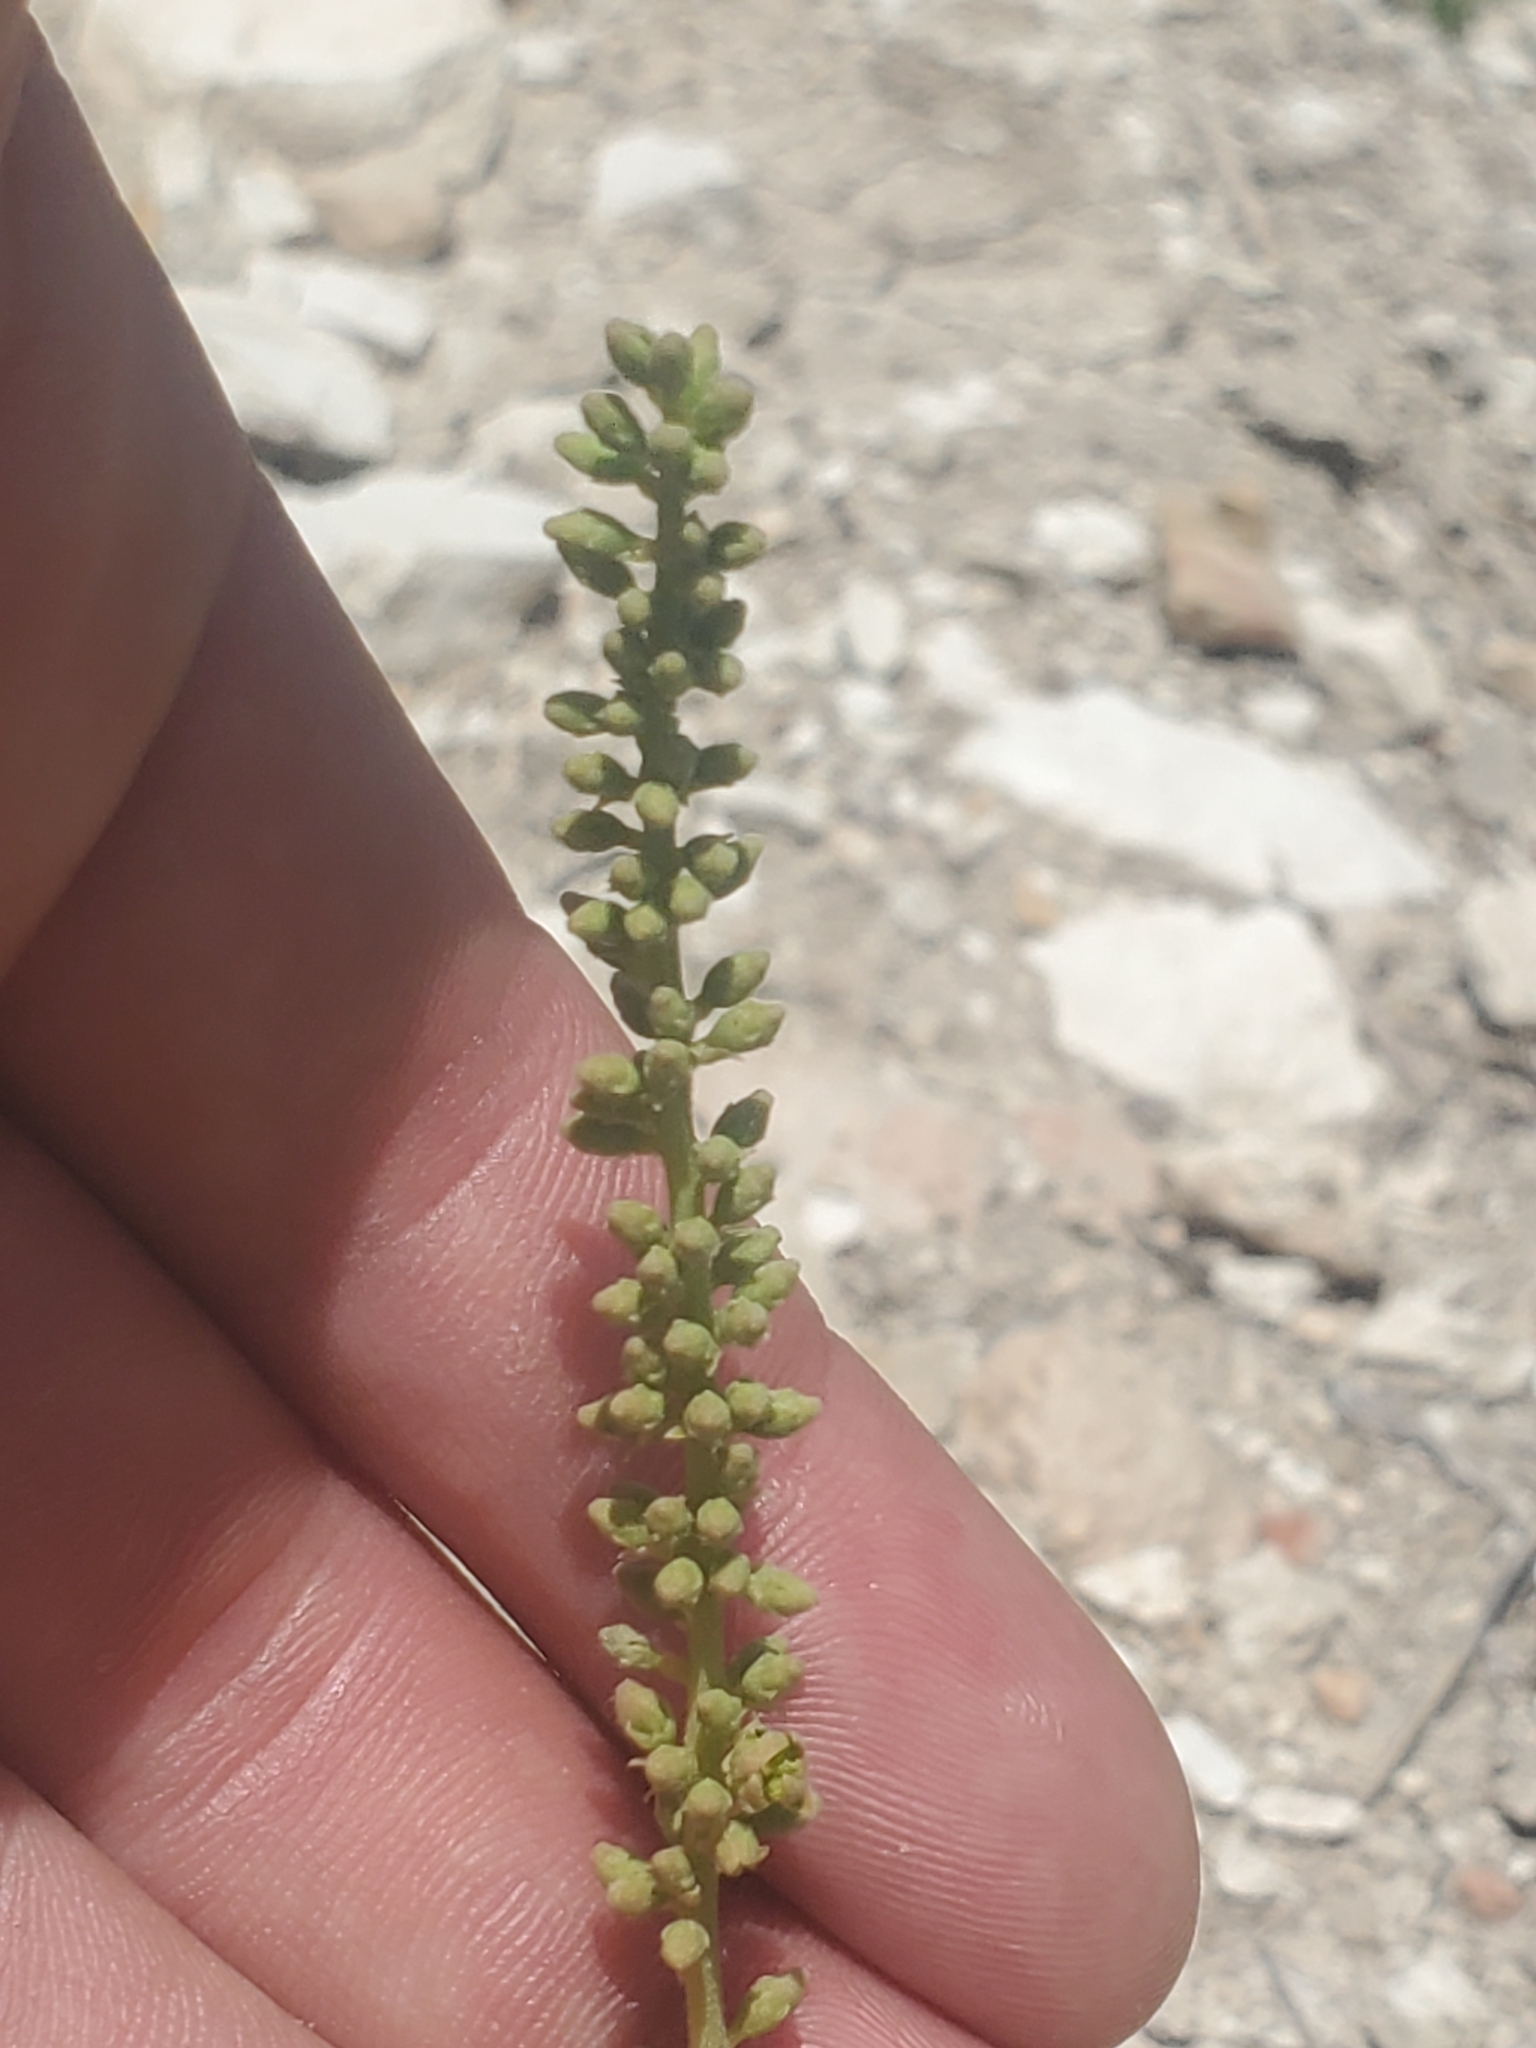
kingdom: Plantae
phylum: Tracheophyta
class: Magnoliopsida
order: Fabales
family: Fabaceae
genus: Prosopis
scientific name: Prosopis farcta
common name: Syrian mesquite
